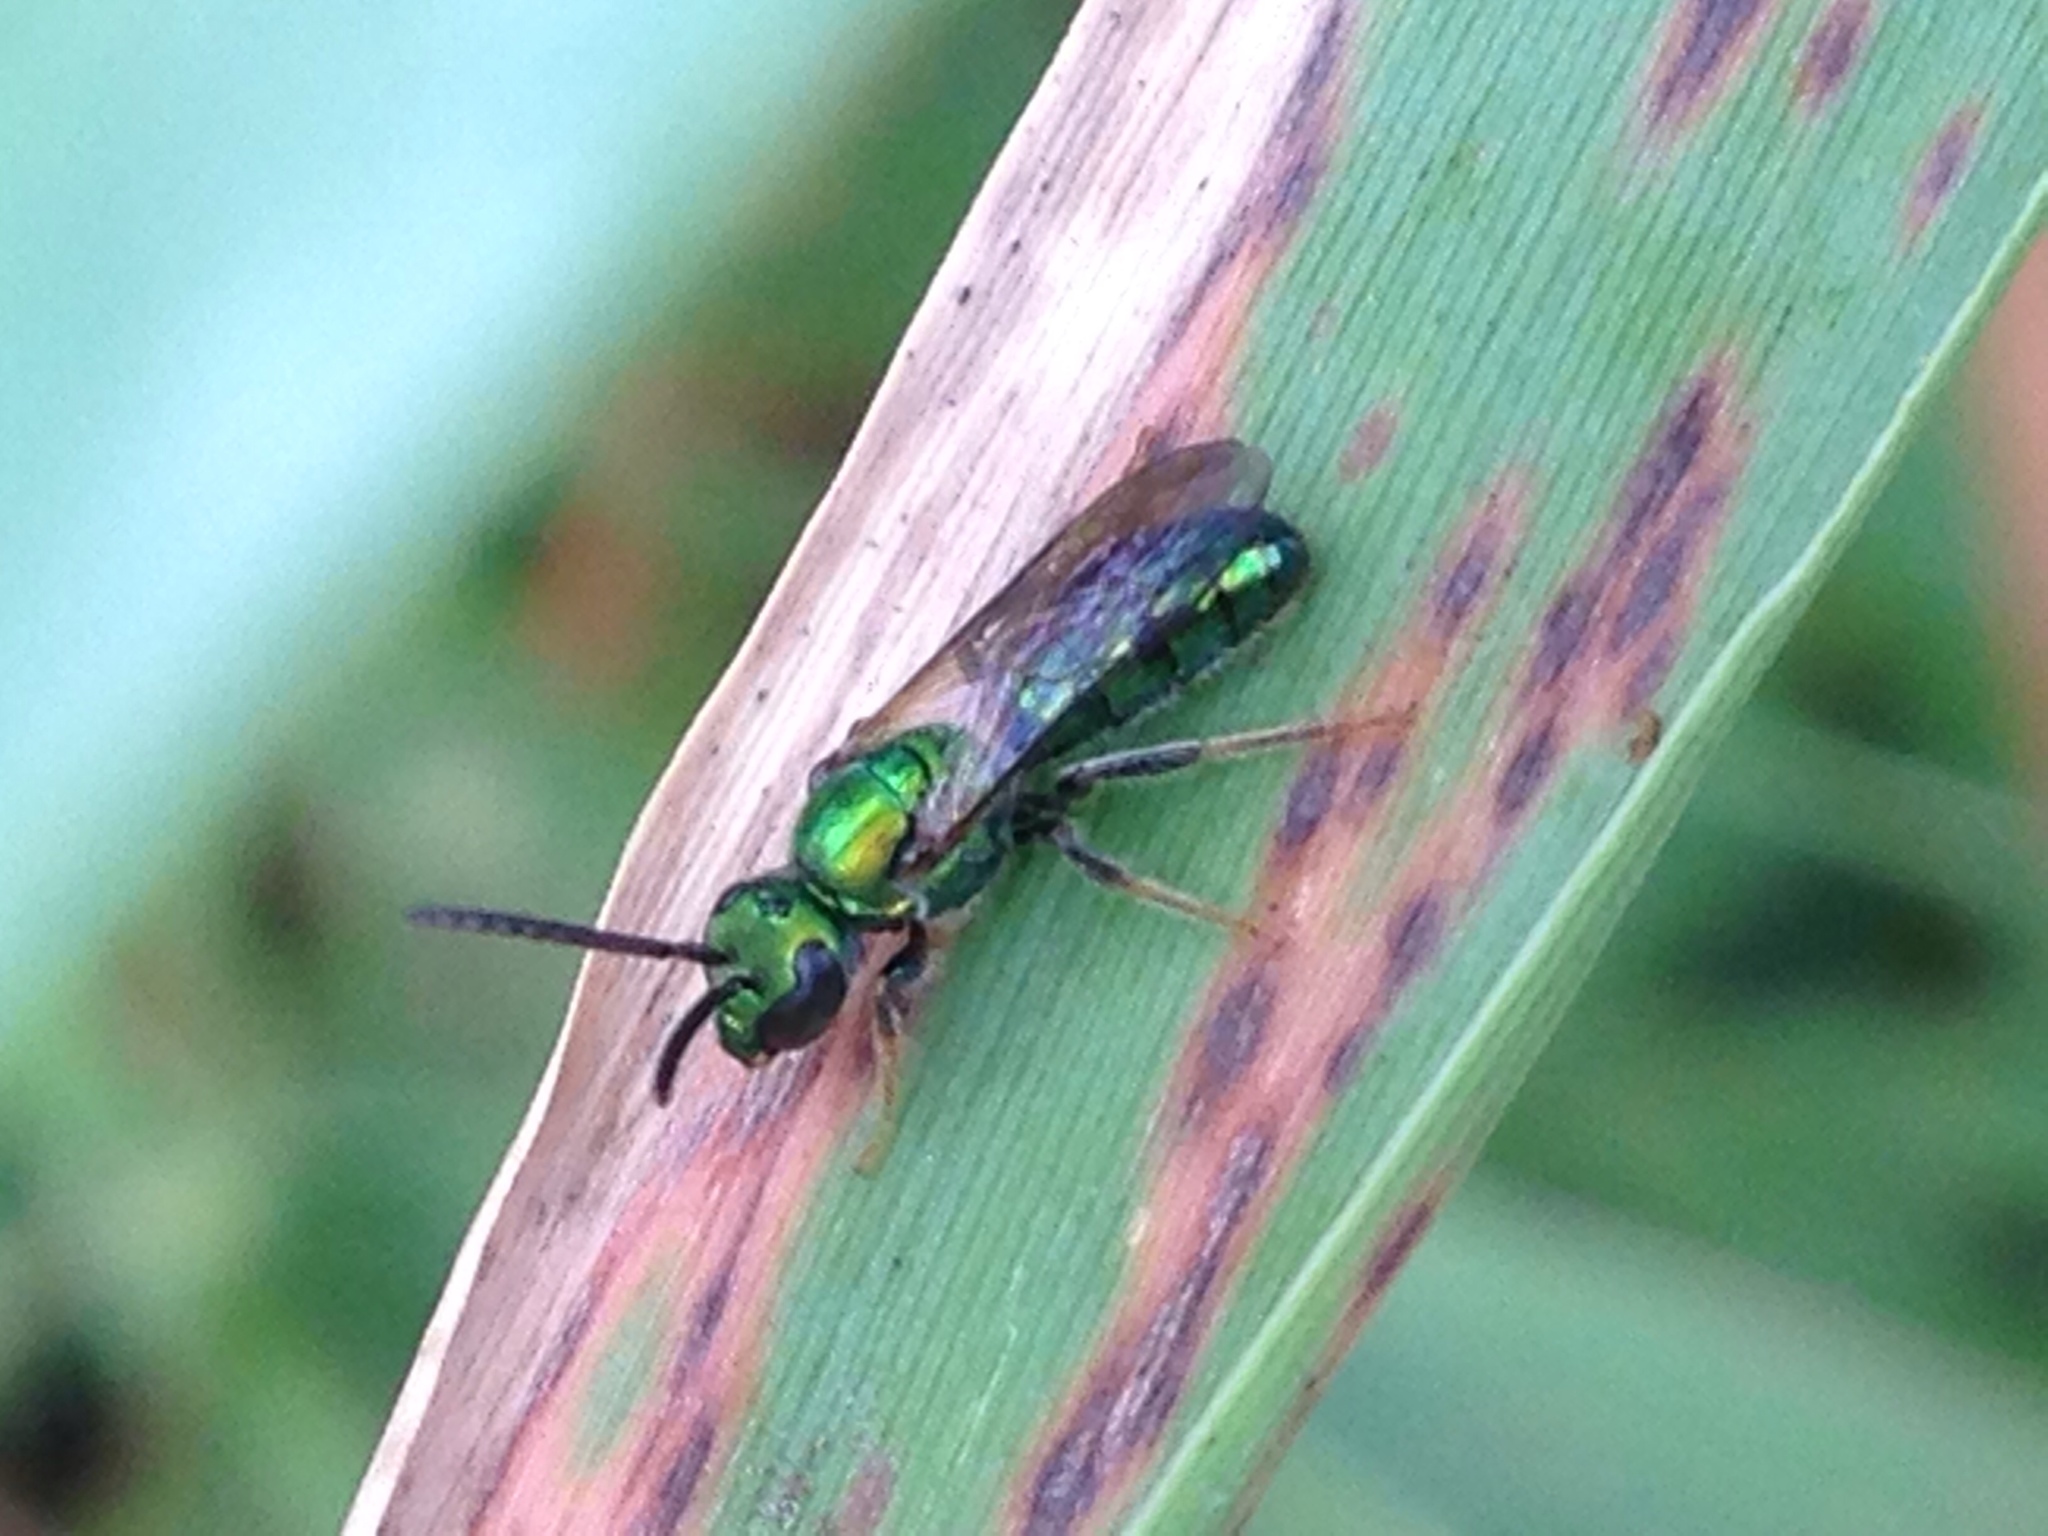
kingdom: Animalia
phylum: Arthropoda
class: Insecta
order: Hymenoptera
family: Halictidae
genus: Augochlora
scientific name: Augochlora pura
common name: Pure green sweat bee
